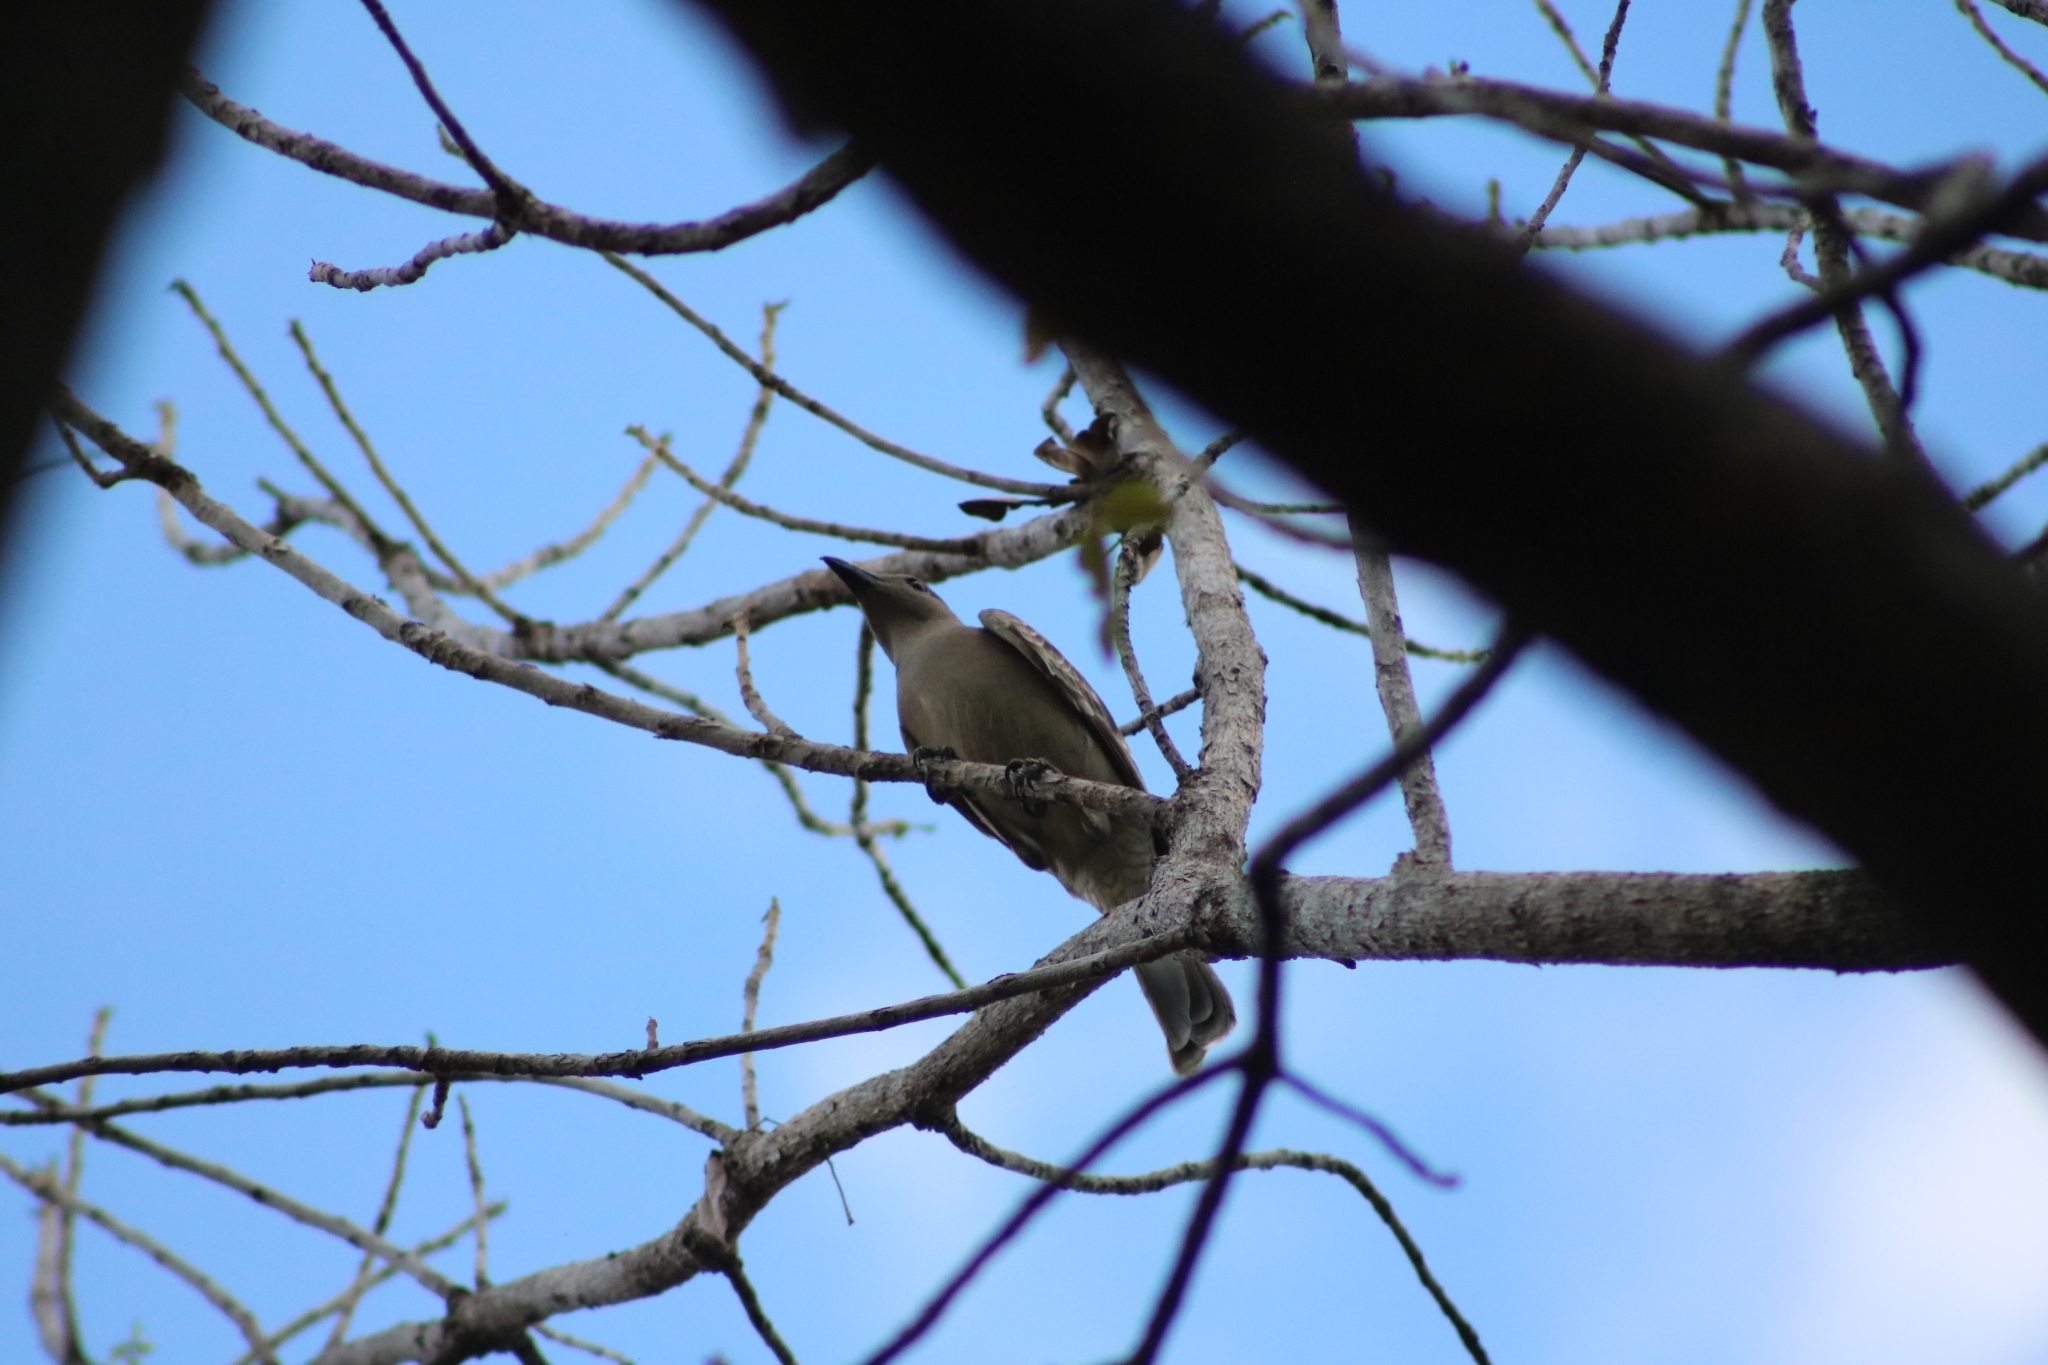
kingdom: Animalia
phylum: Chordata
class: Aves
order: Passeriformes
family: Ptilonorhynchidae
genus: Chlamydera
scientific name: Chlamydera nuchalis
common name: Great bowerbird
